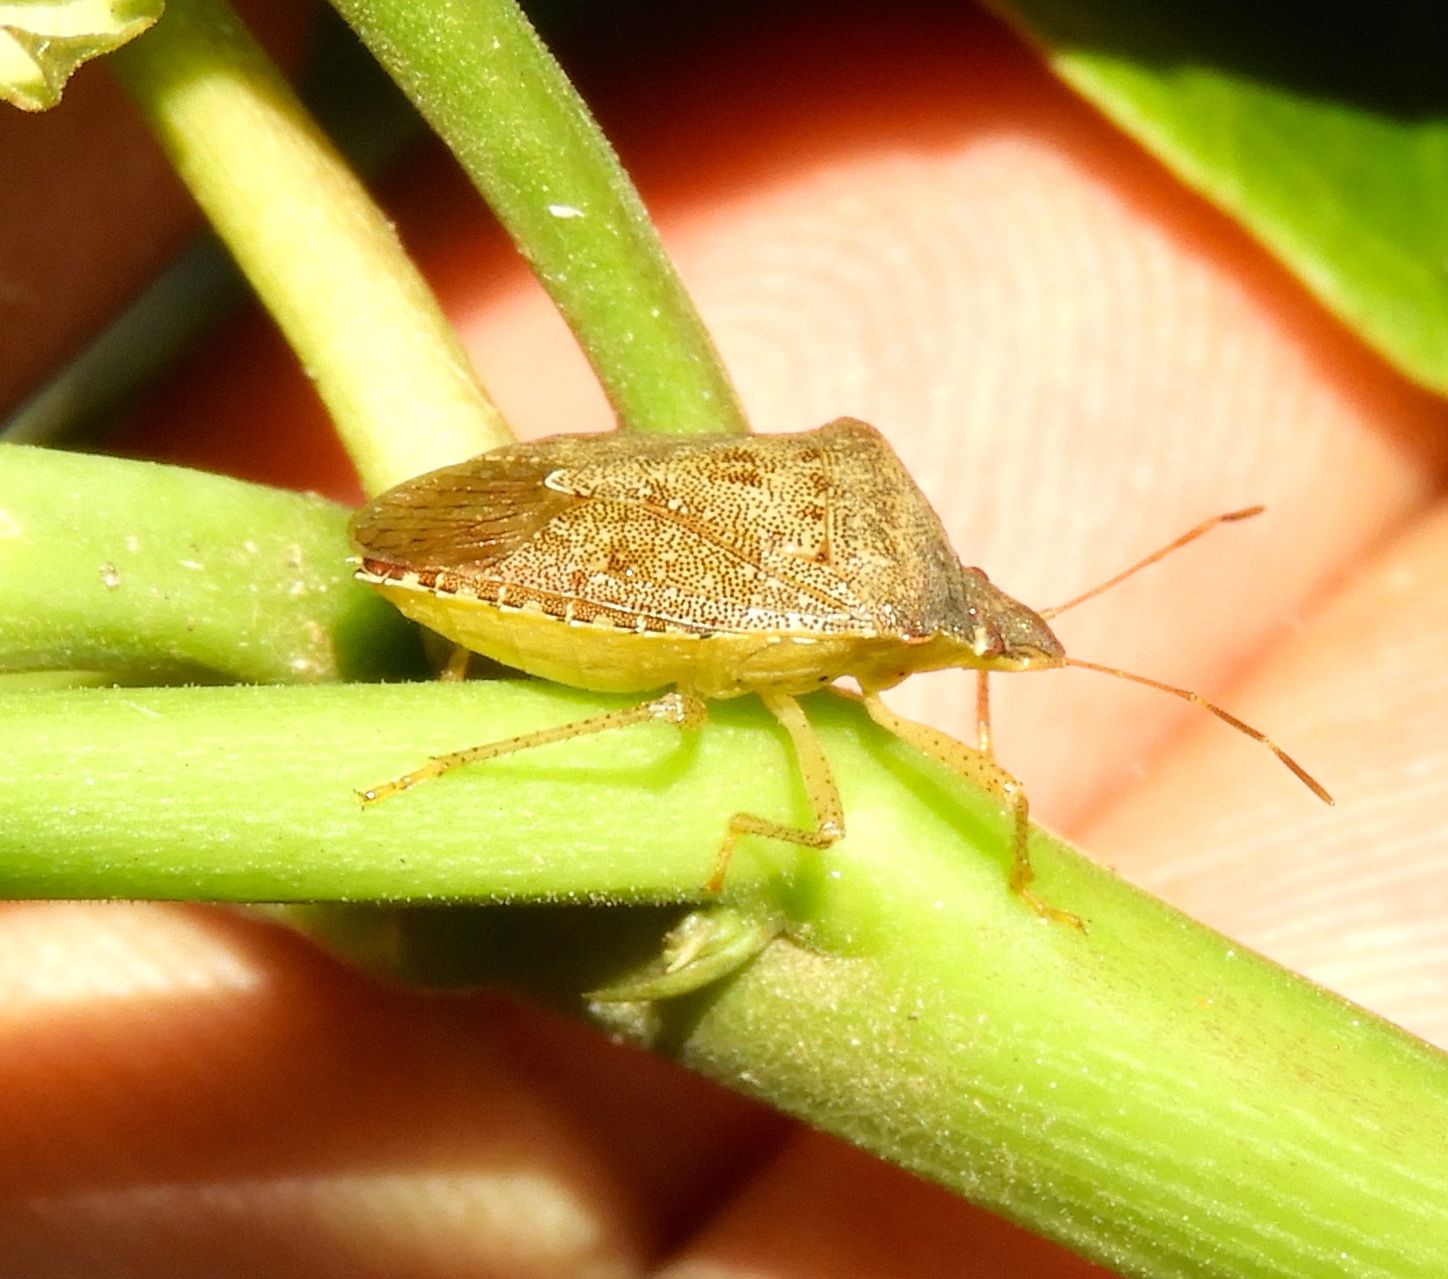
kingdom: Animalia
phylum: Arthropoda
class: Insecta
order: Hemiptera
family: Pentatomidae
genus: Euschistus
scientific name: Euschistus
